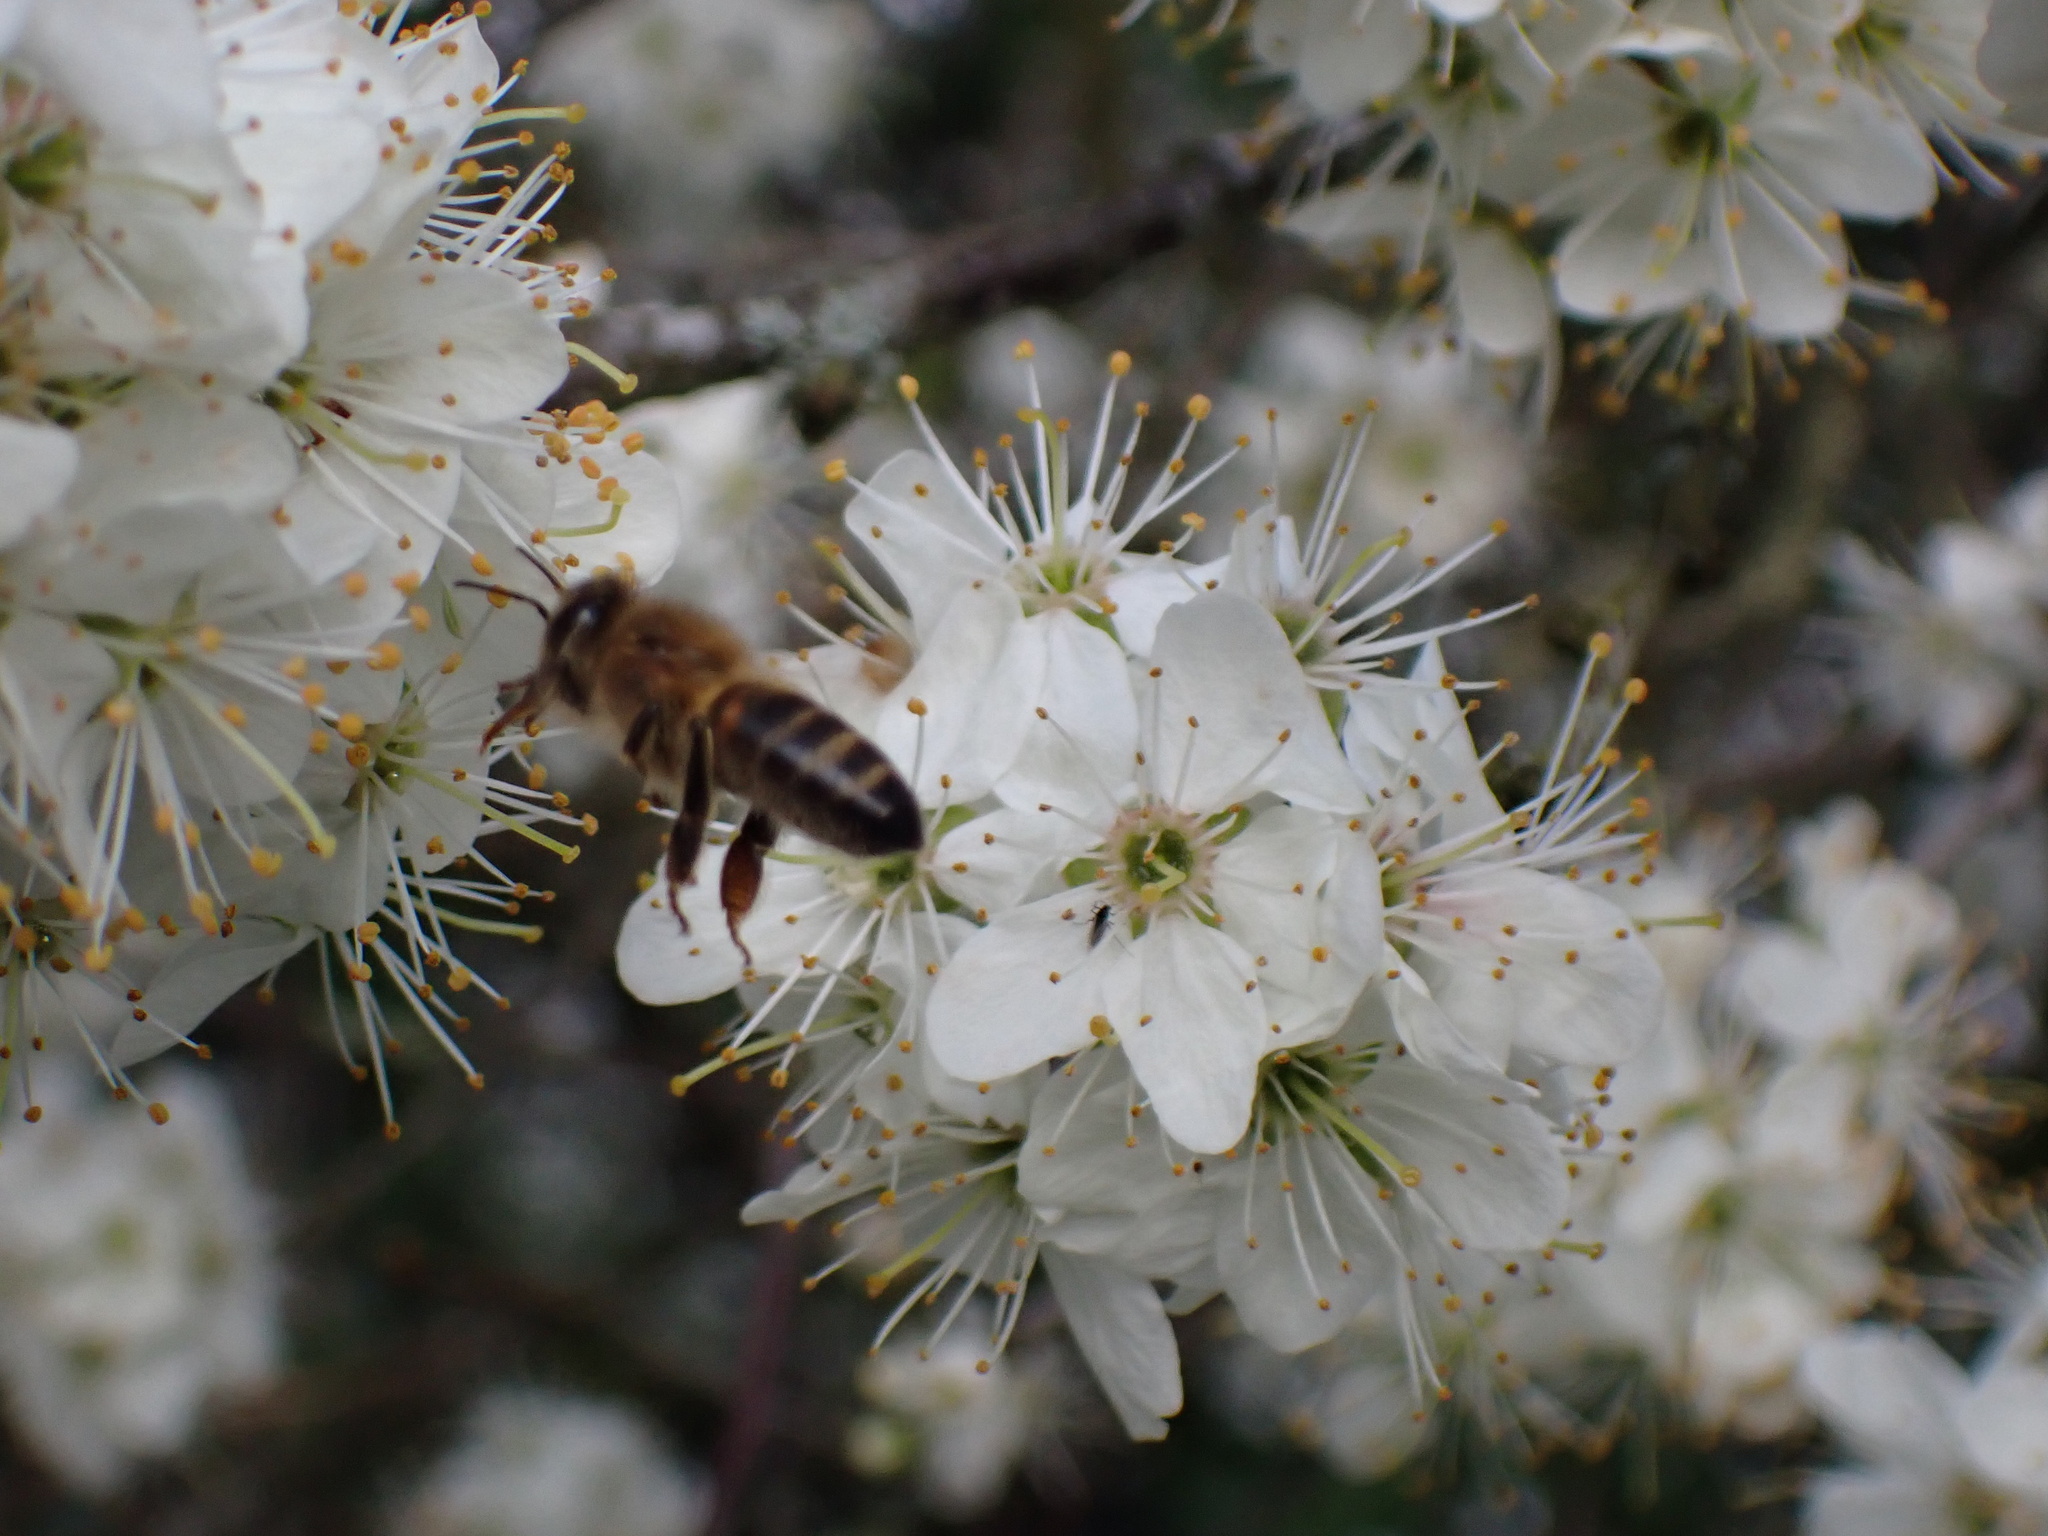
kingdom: Animalia
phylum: Arthropoda
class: Insecta
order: Hymenoptera
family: Apidae
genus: Apis
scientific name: Apis mellifera
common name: Honey bee
